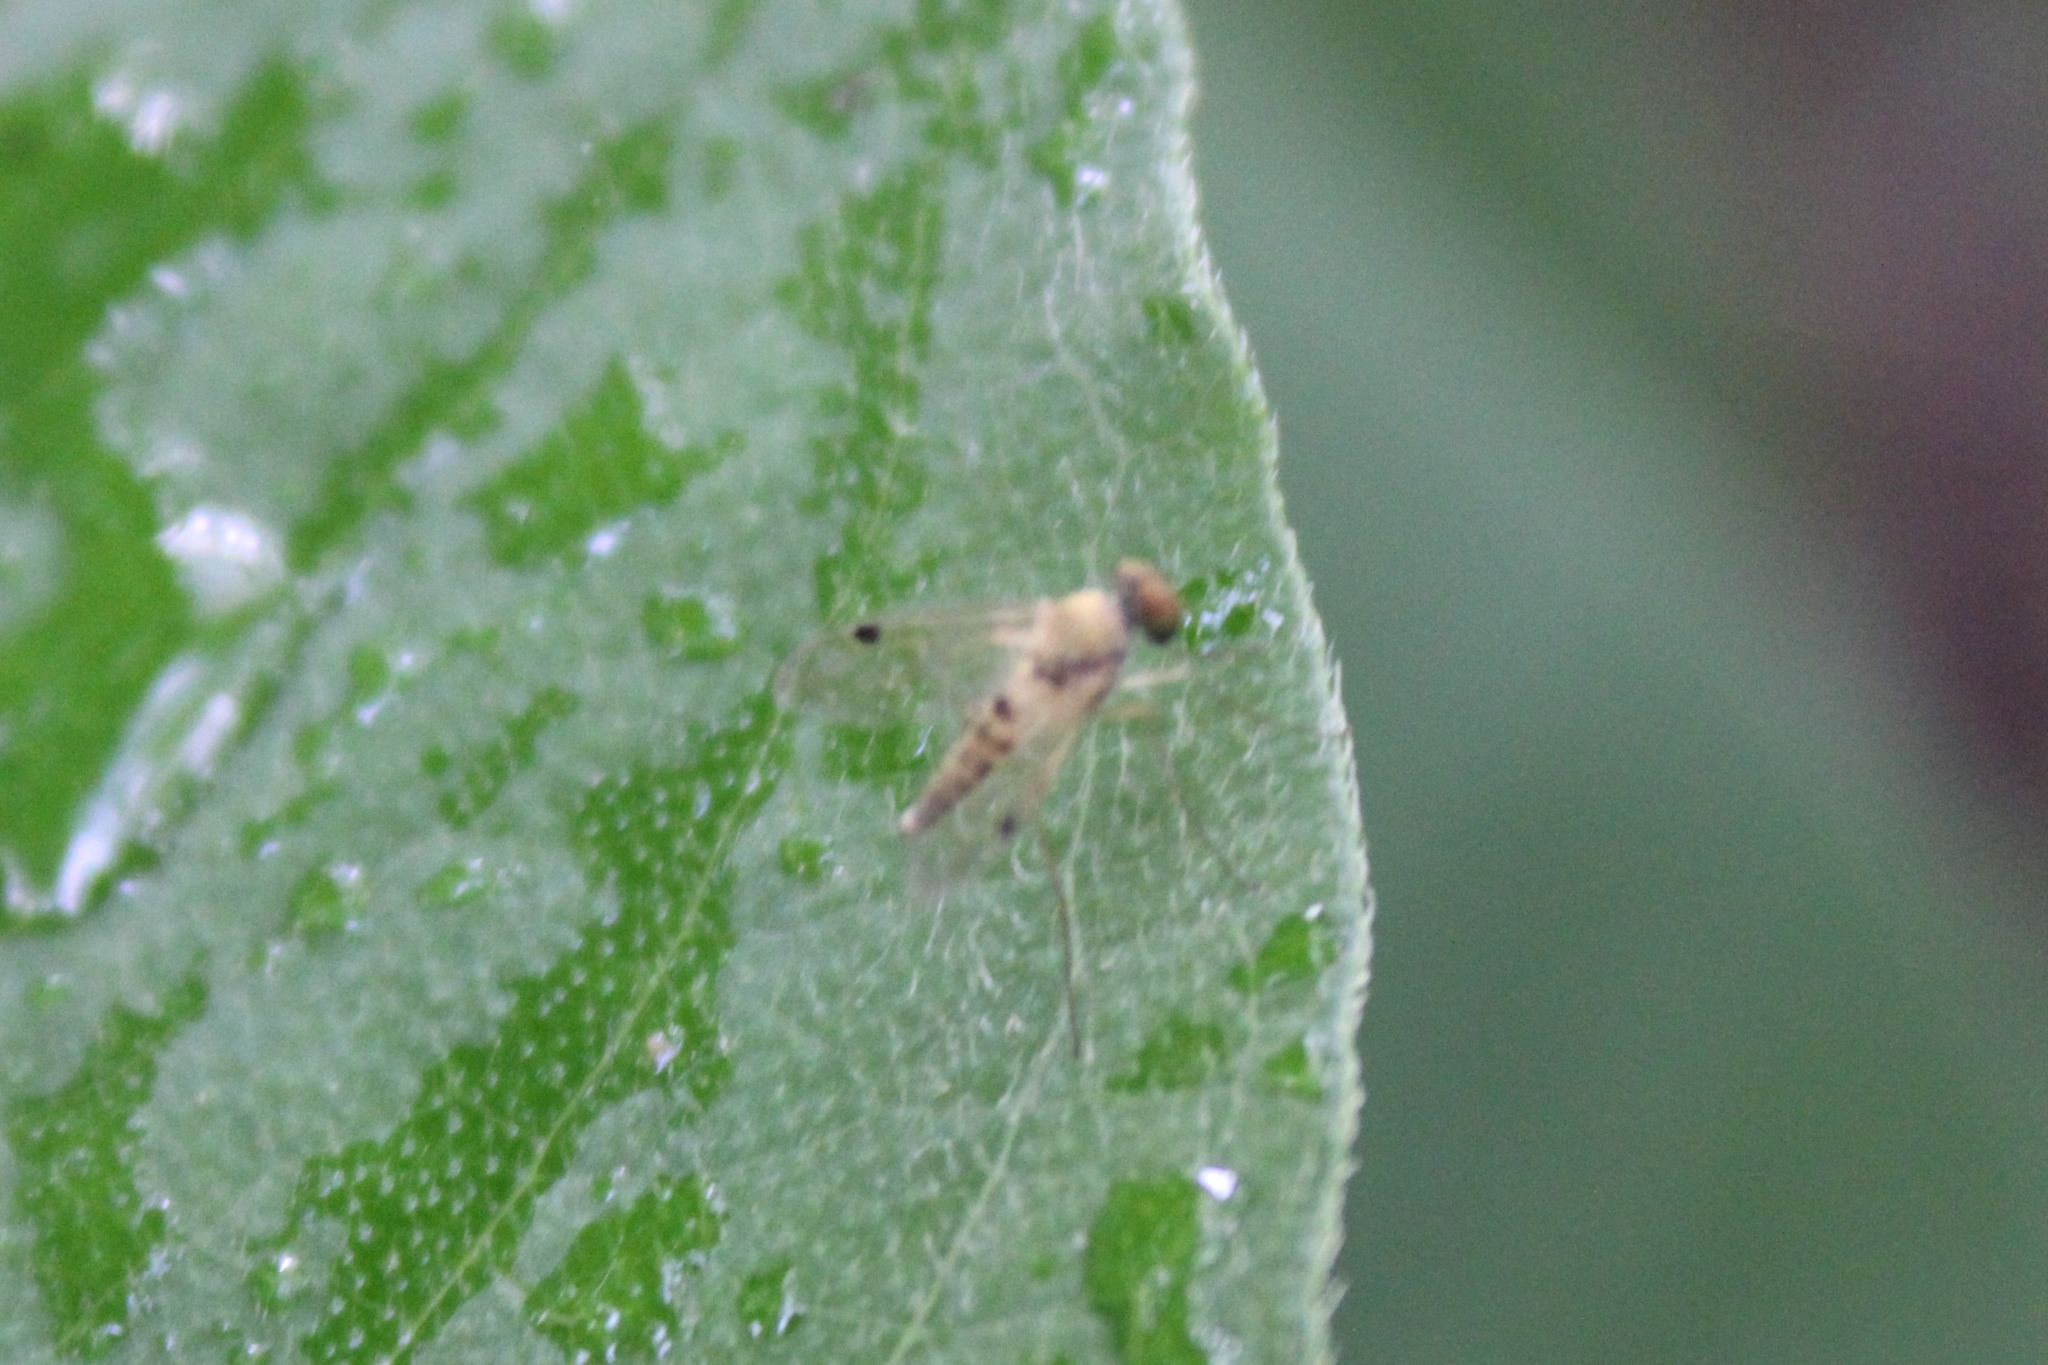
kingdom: Animalia
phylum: Arthropoda
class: Insecta
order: Diptera
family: Rhagionidae
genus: Chrysopilus
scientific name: Chrysopilus modestus
